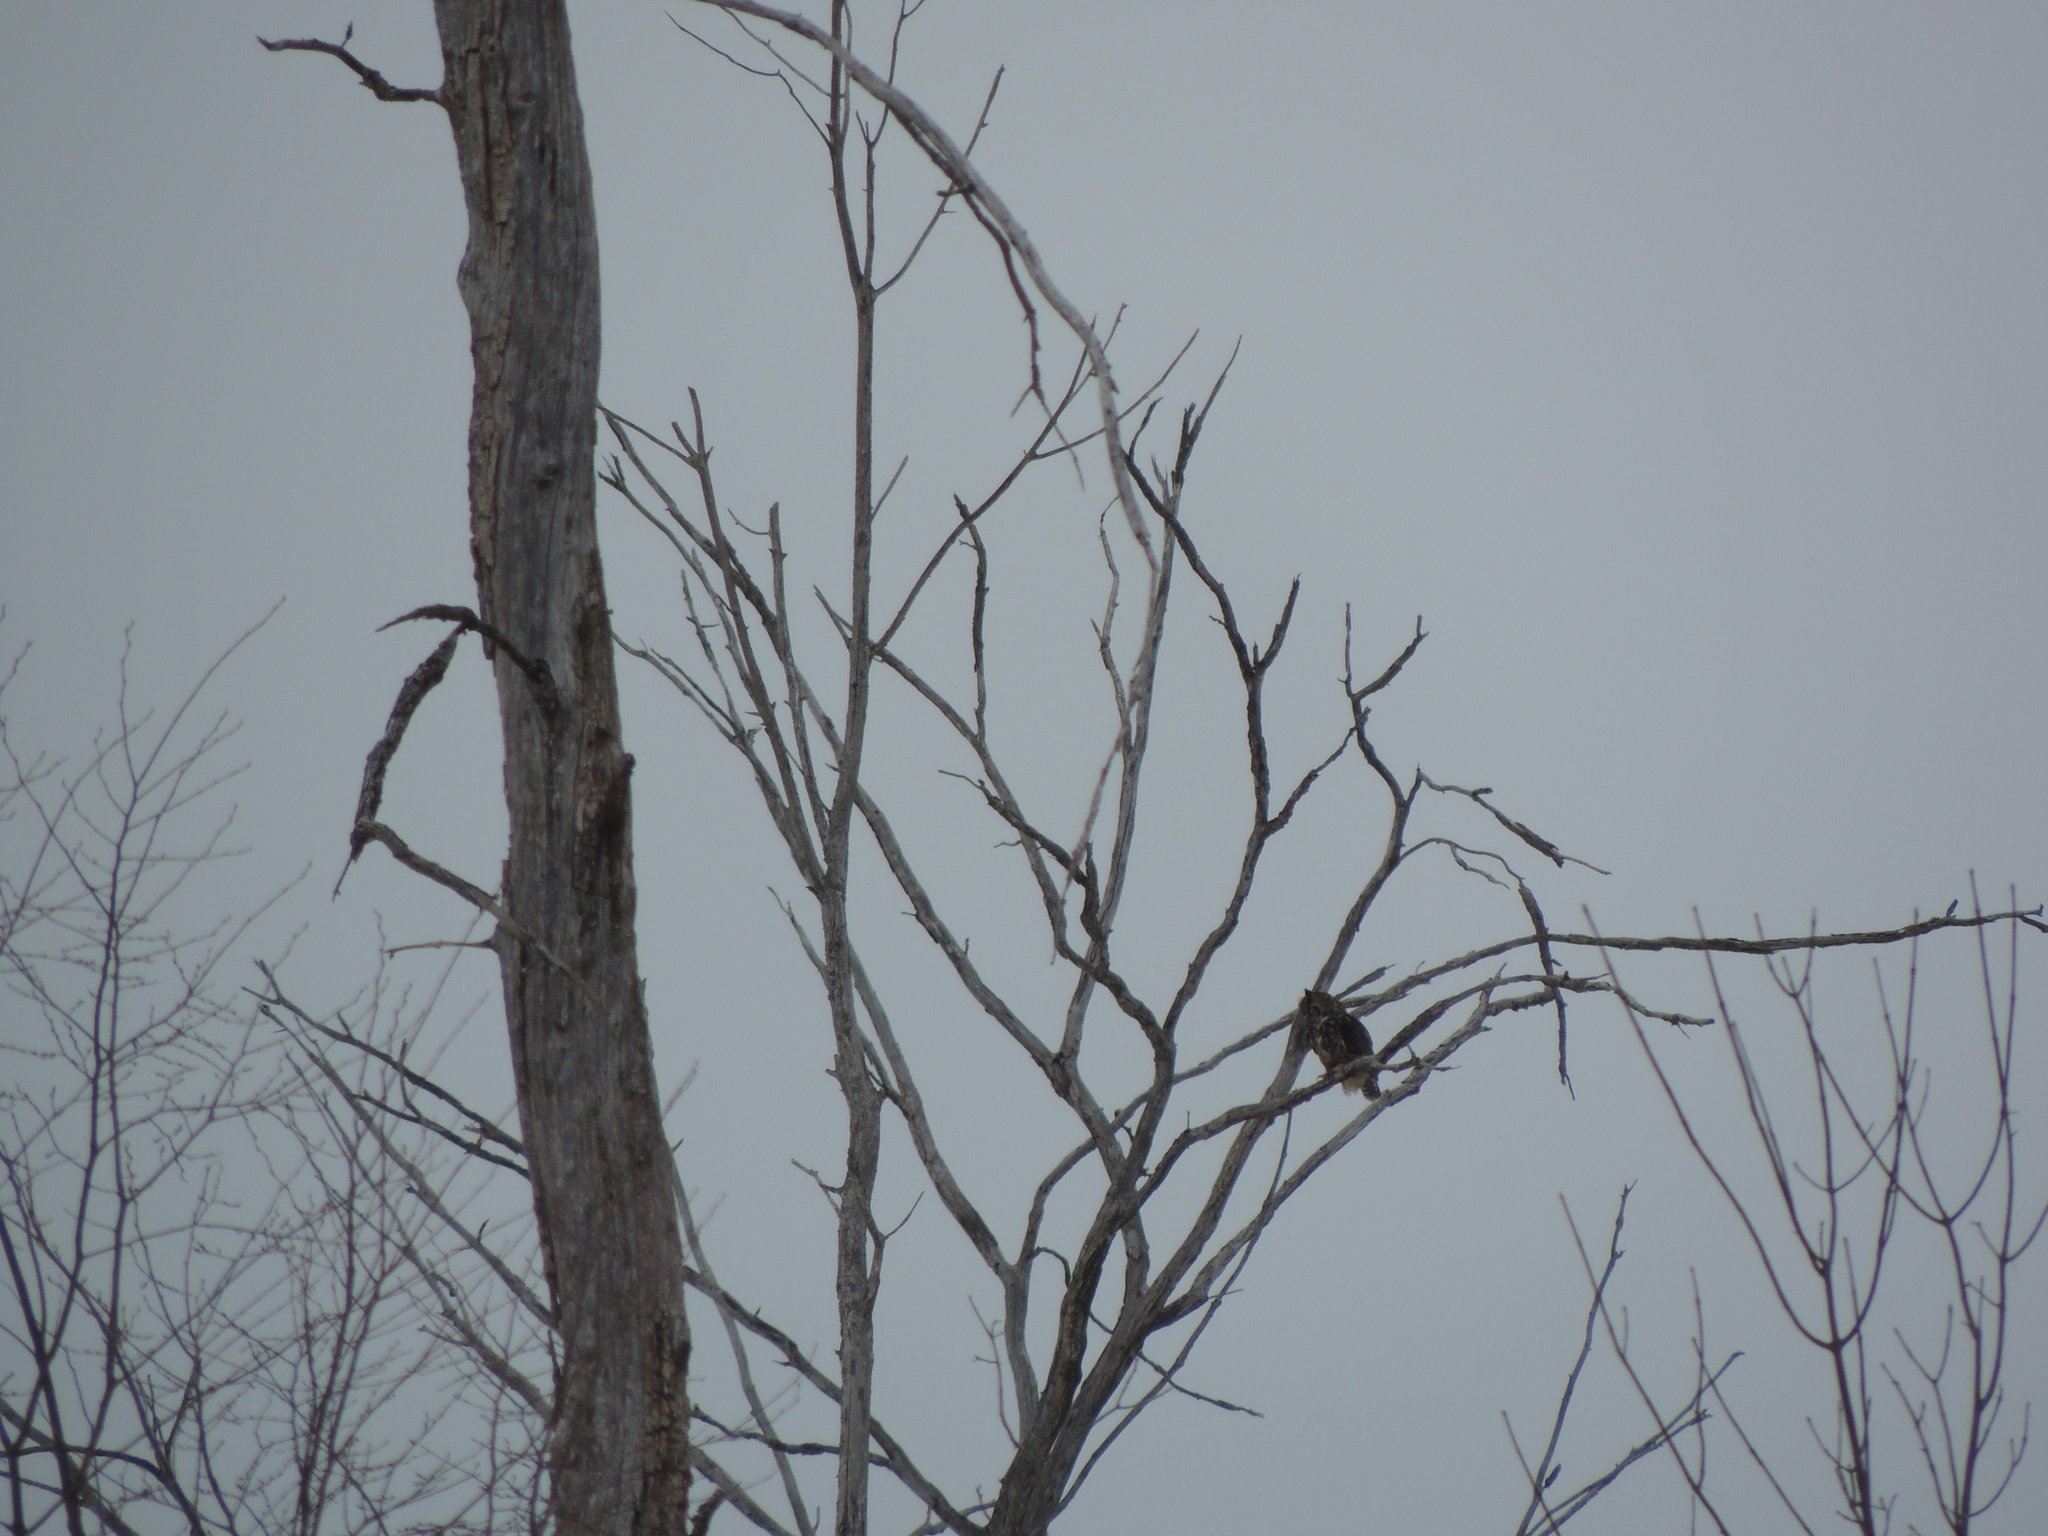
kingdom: Animalia
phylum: Chordata
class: Aves
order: Strigiformes
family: Strigidae
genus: Bubo
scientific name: Bubo virginianus
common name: Great horned owl
